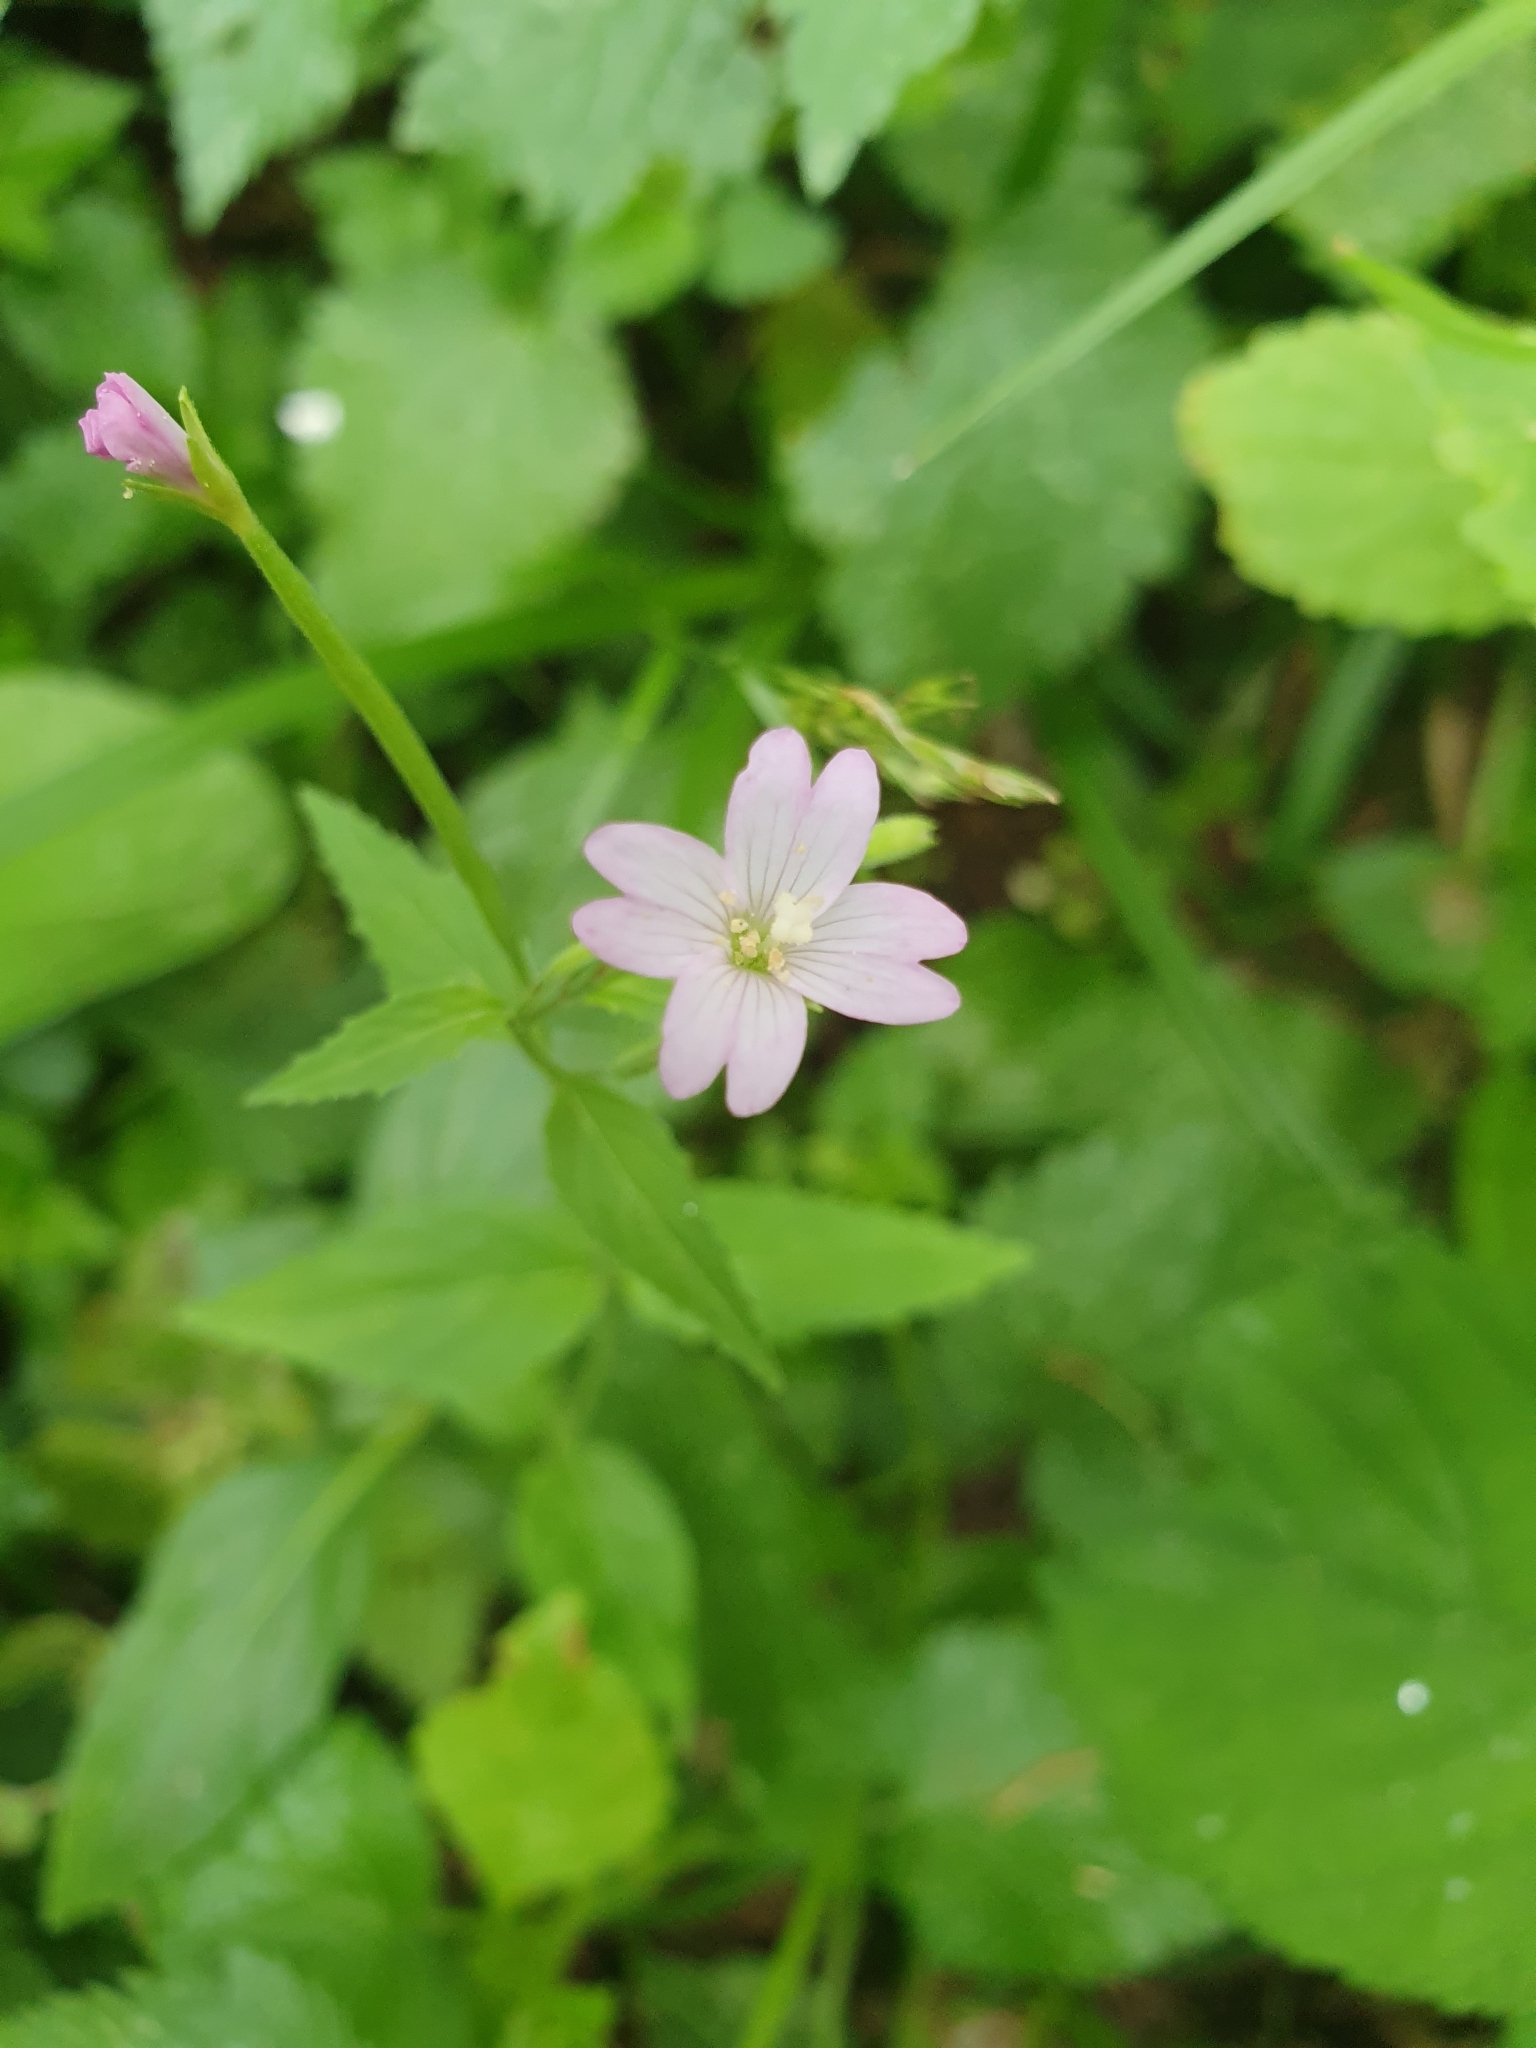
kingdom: Plantae
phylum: Tracheophyta
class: Magnoliopsida
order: Myrtales
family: Onagraceae
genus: Epilobium
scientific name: Epilobium montanum
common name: Broad-leaved willowherb
